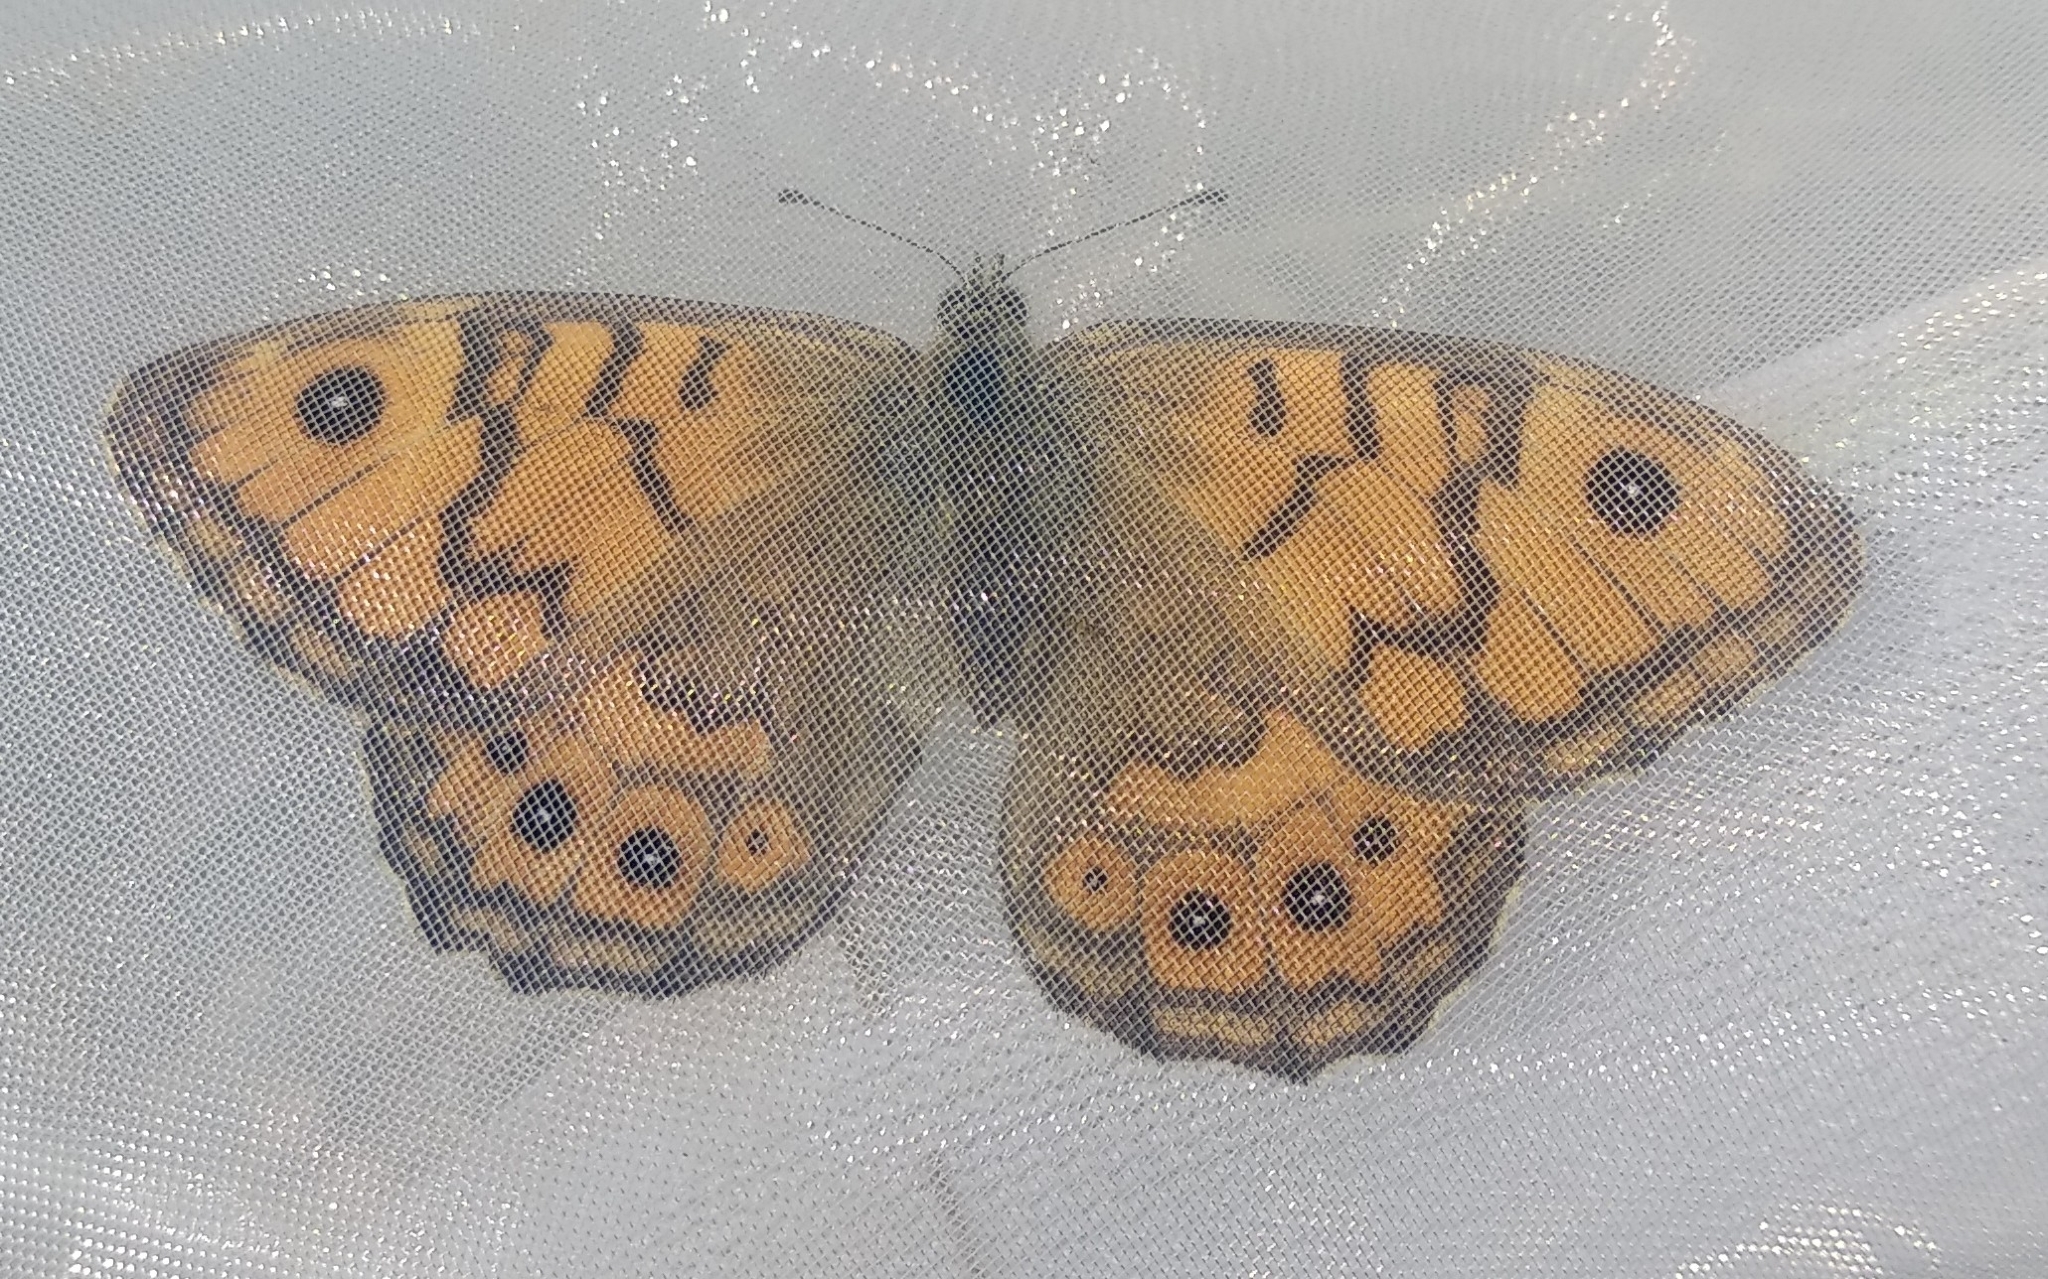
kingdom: Animalia
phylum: Arthropoda
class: Insecta
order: Lepidoptera
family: Nymphalidae
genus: Pararge
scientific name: Pararge Lasiommata megera
